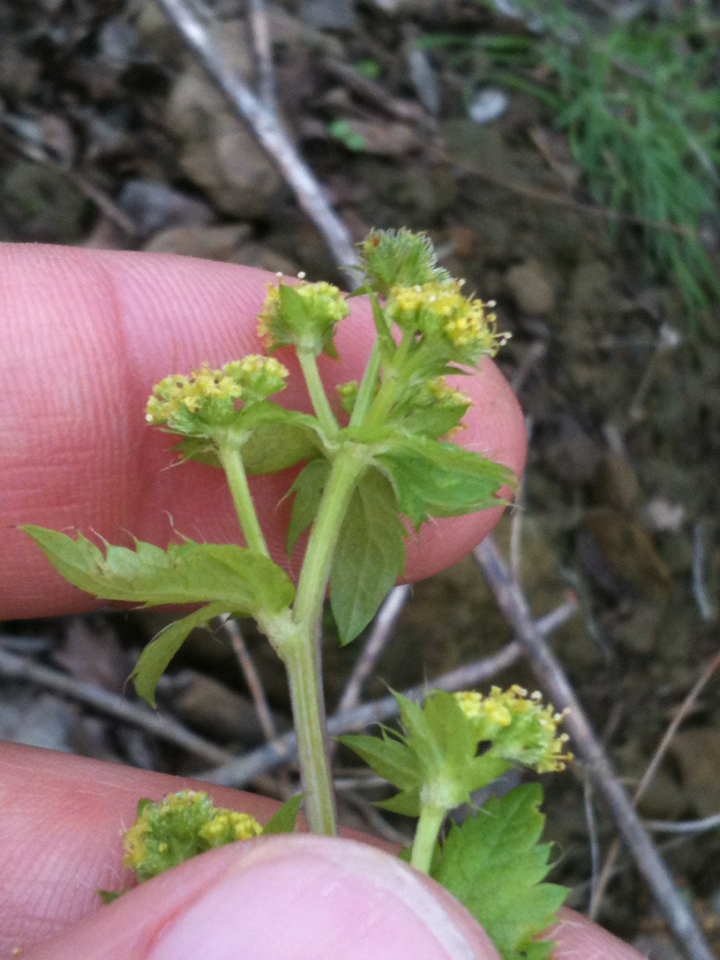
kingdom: Plantae
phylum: Tracheophyta
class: Magnoliopsida
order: Apiales
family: Apiaceae
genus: Sanicula
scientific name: Sanicula crassicaulis
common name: Western snakeroot
